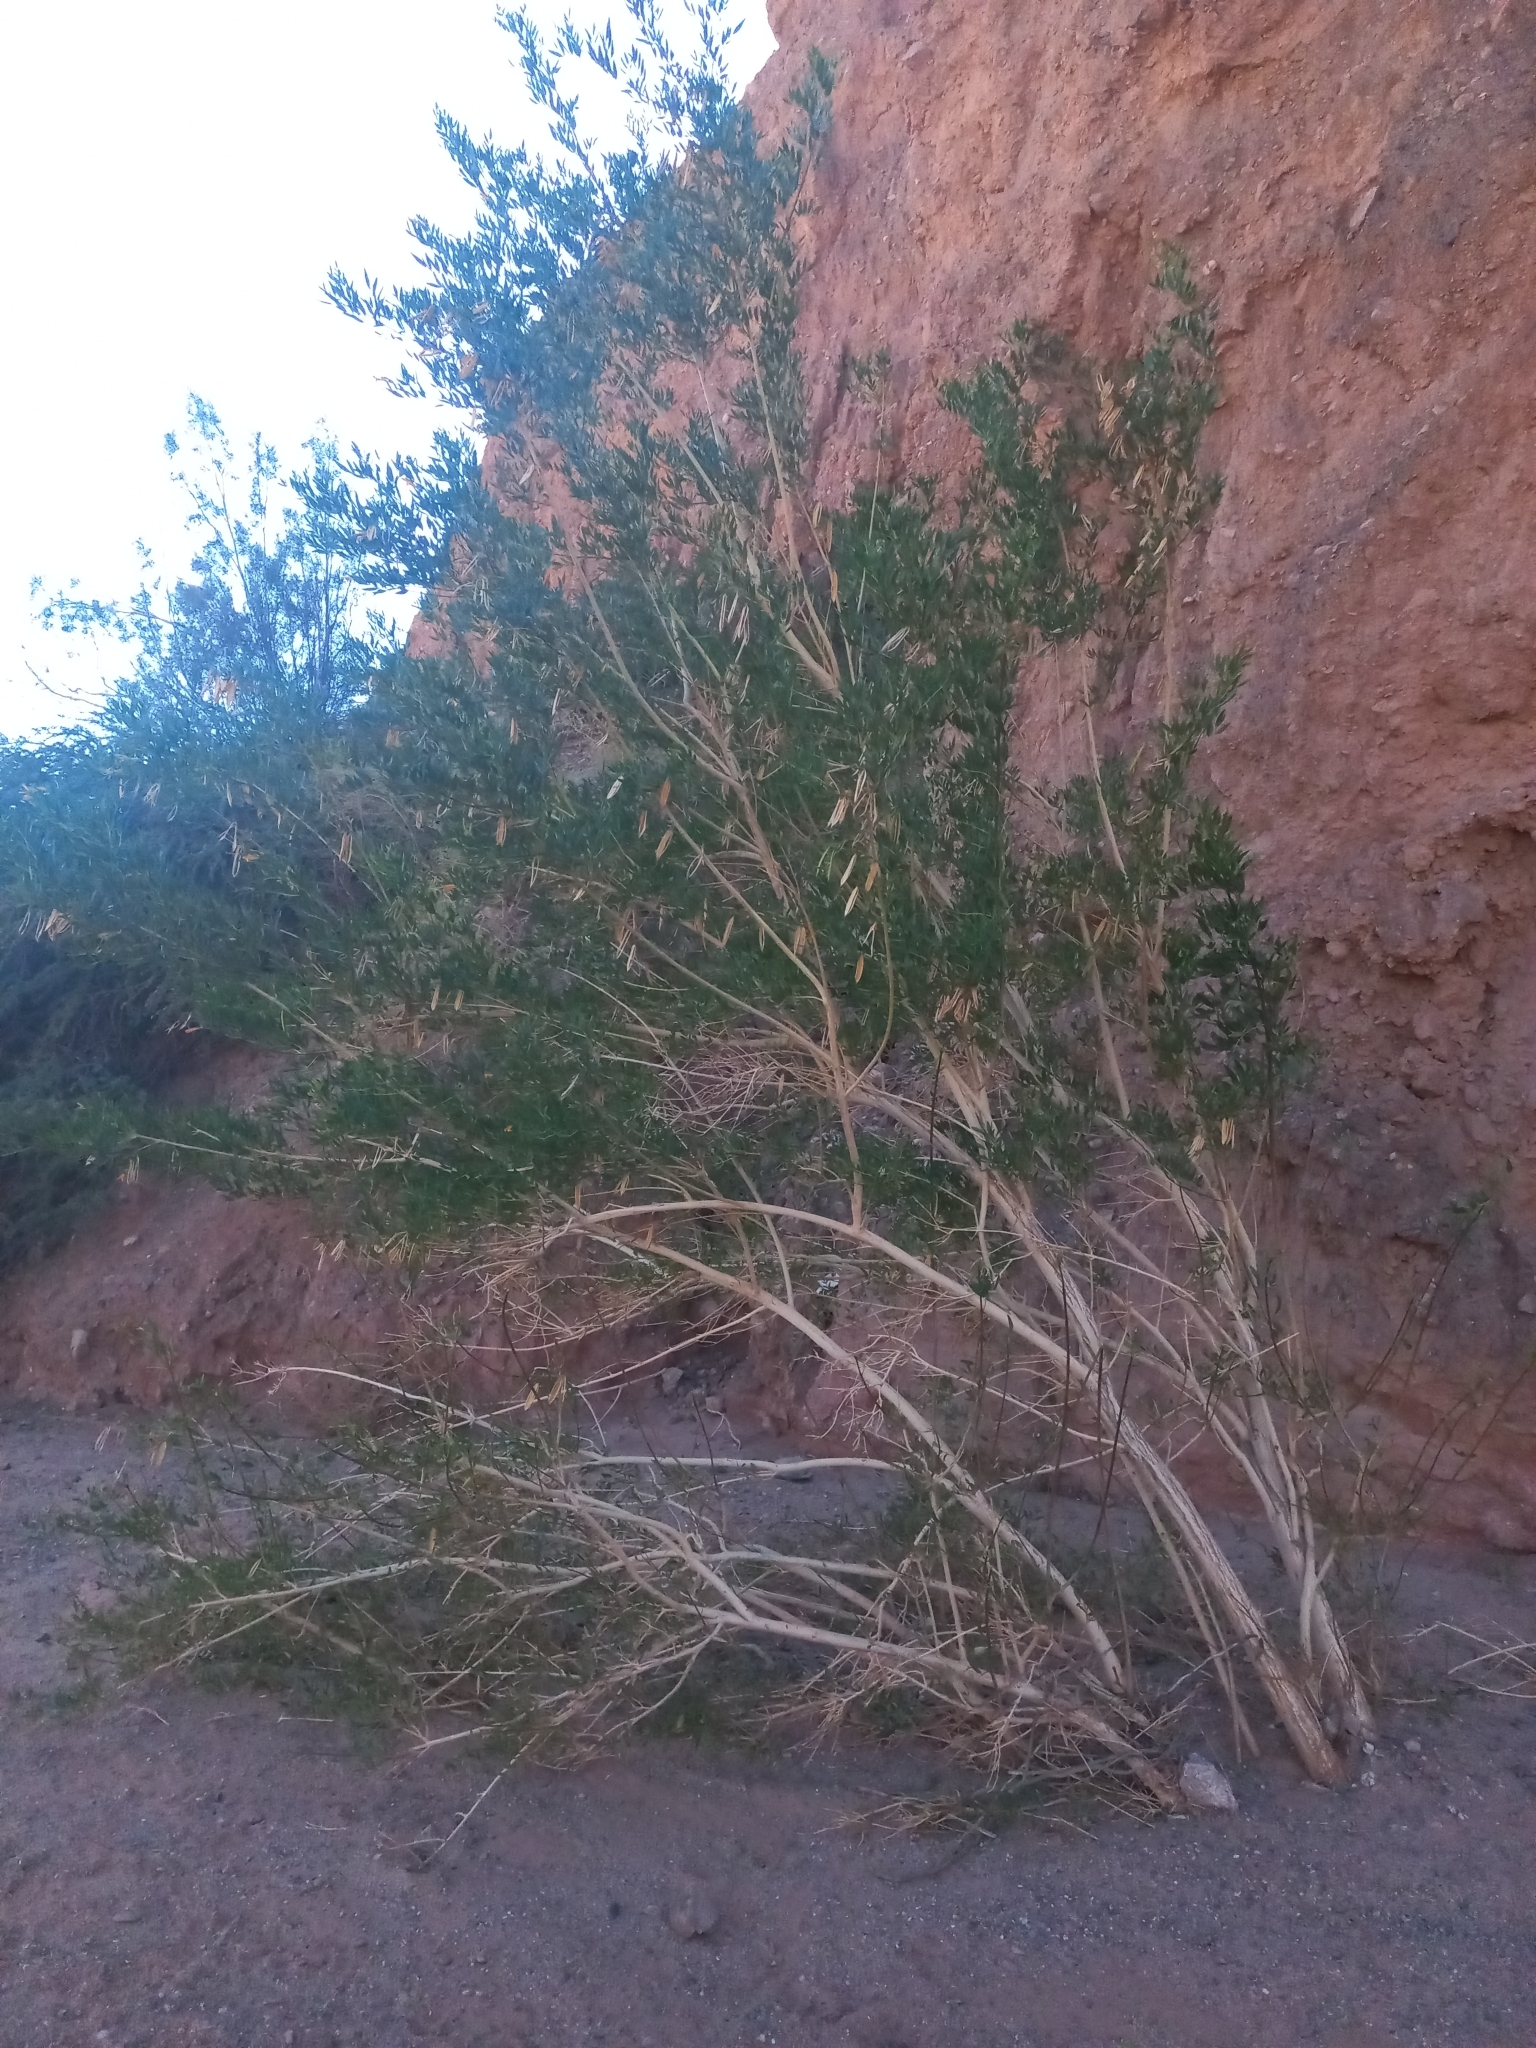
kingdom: Plantae
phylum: Tracheophyta
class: Magnoliopsida
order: Lamiales
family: Bignoniaceae
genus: Tecoma
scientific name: Tecoma fulva
